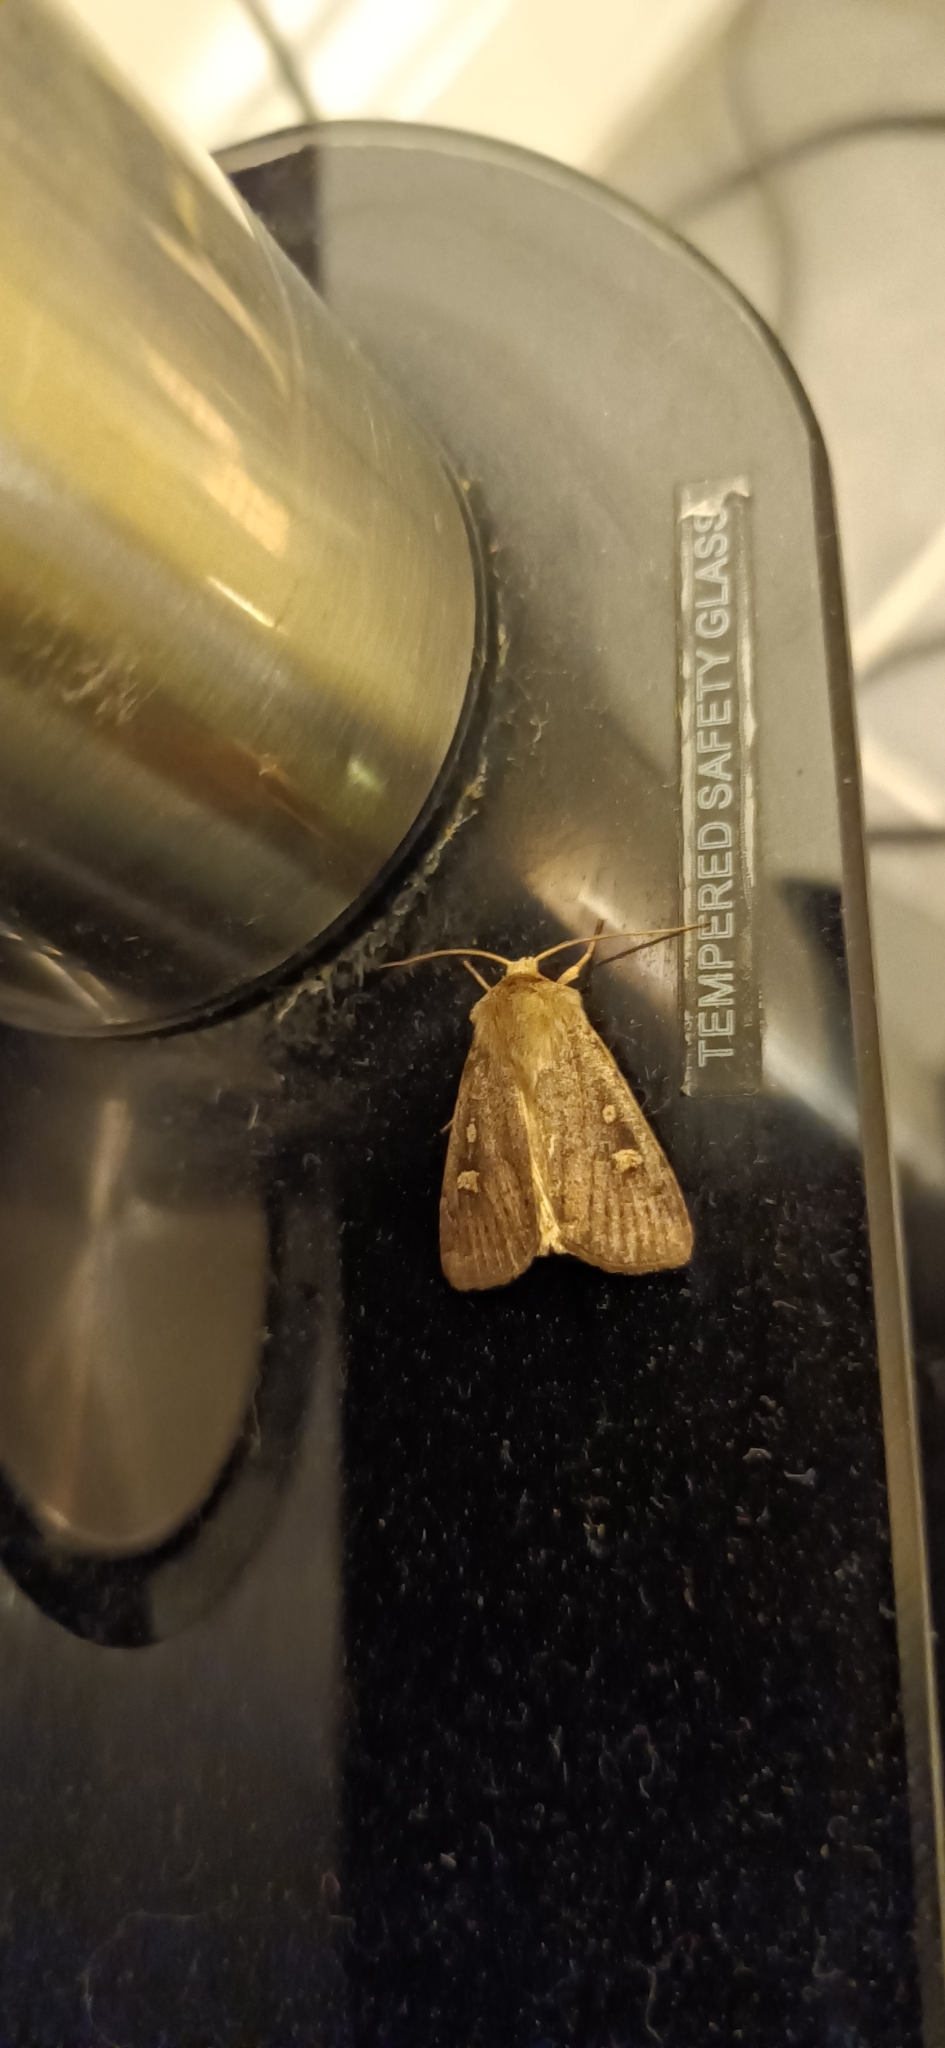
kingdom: Animalia
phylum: Arthropoda
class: Insecta
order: Lepidoptera
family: Noctuidae
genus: Xestia
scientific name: Xestia xanthographa
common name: Square-spot rustic
